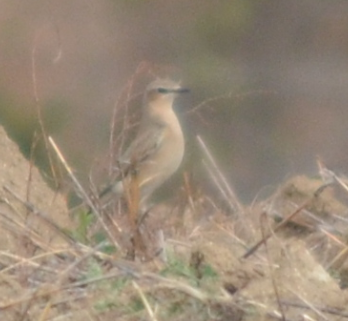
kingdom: Animalia
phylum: Chordata
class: Aves
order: Passeriformes
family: Muscicapidae
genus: Oenanthe
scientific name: Oenanthe oenanthe
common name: Northern wheatear
